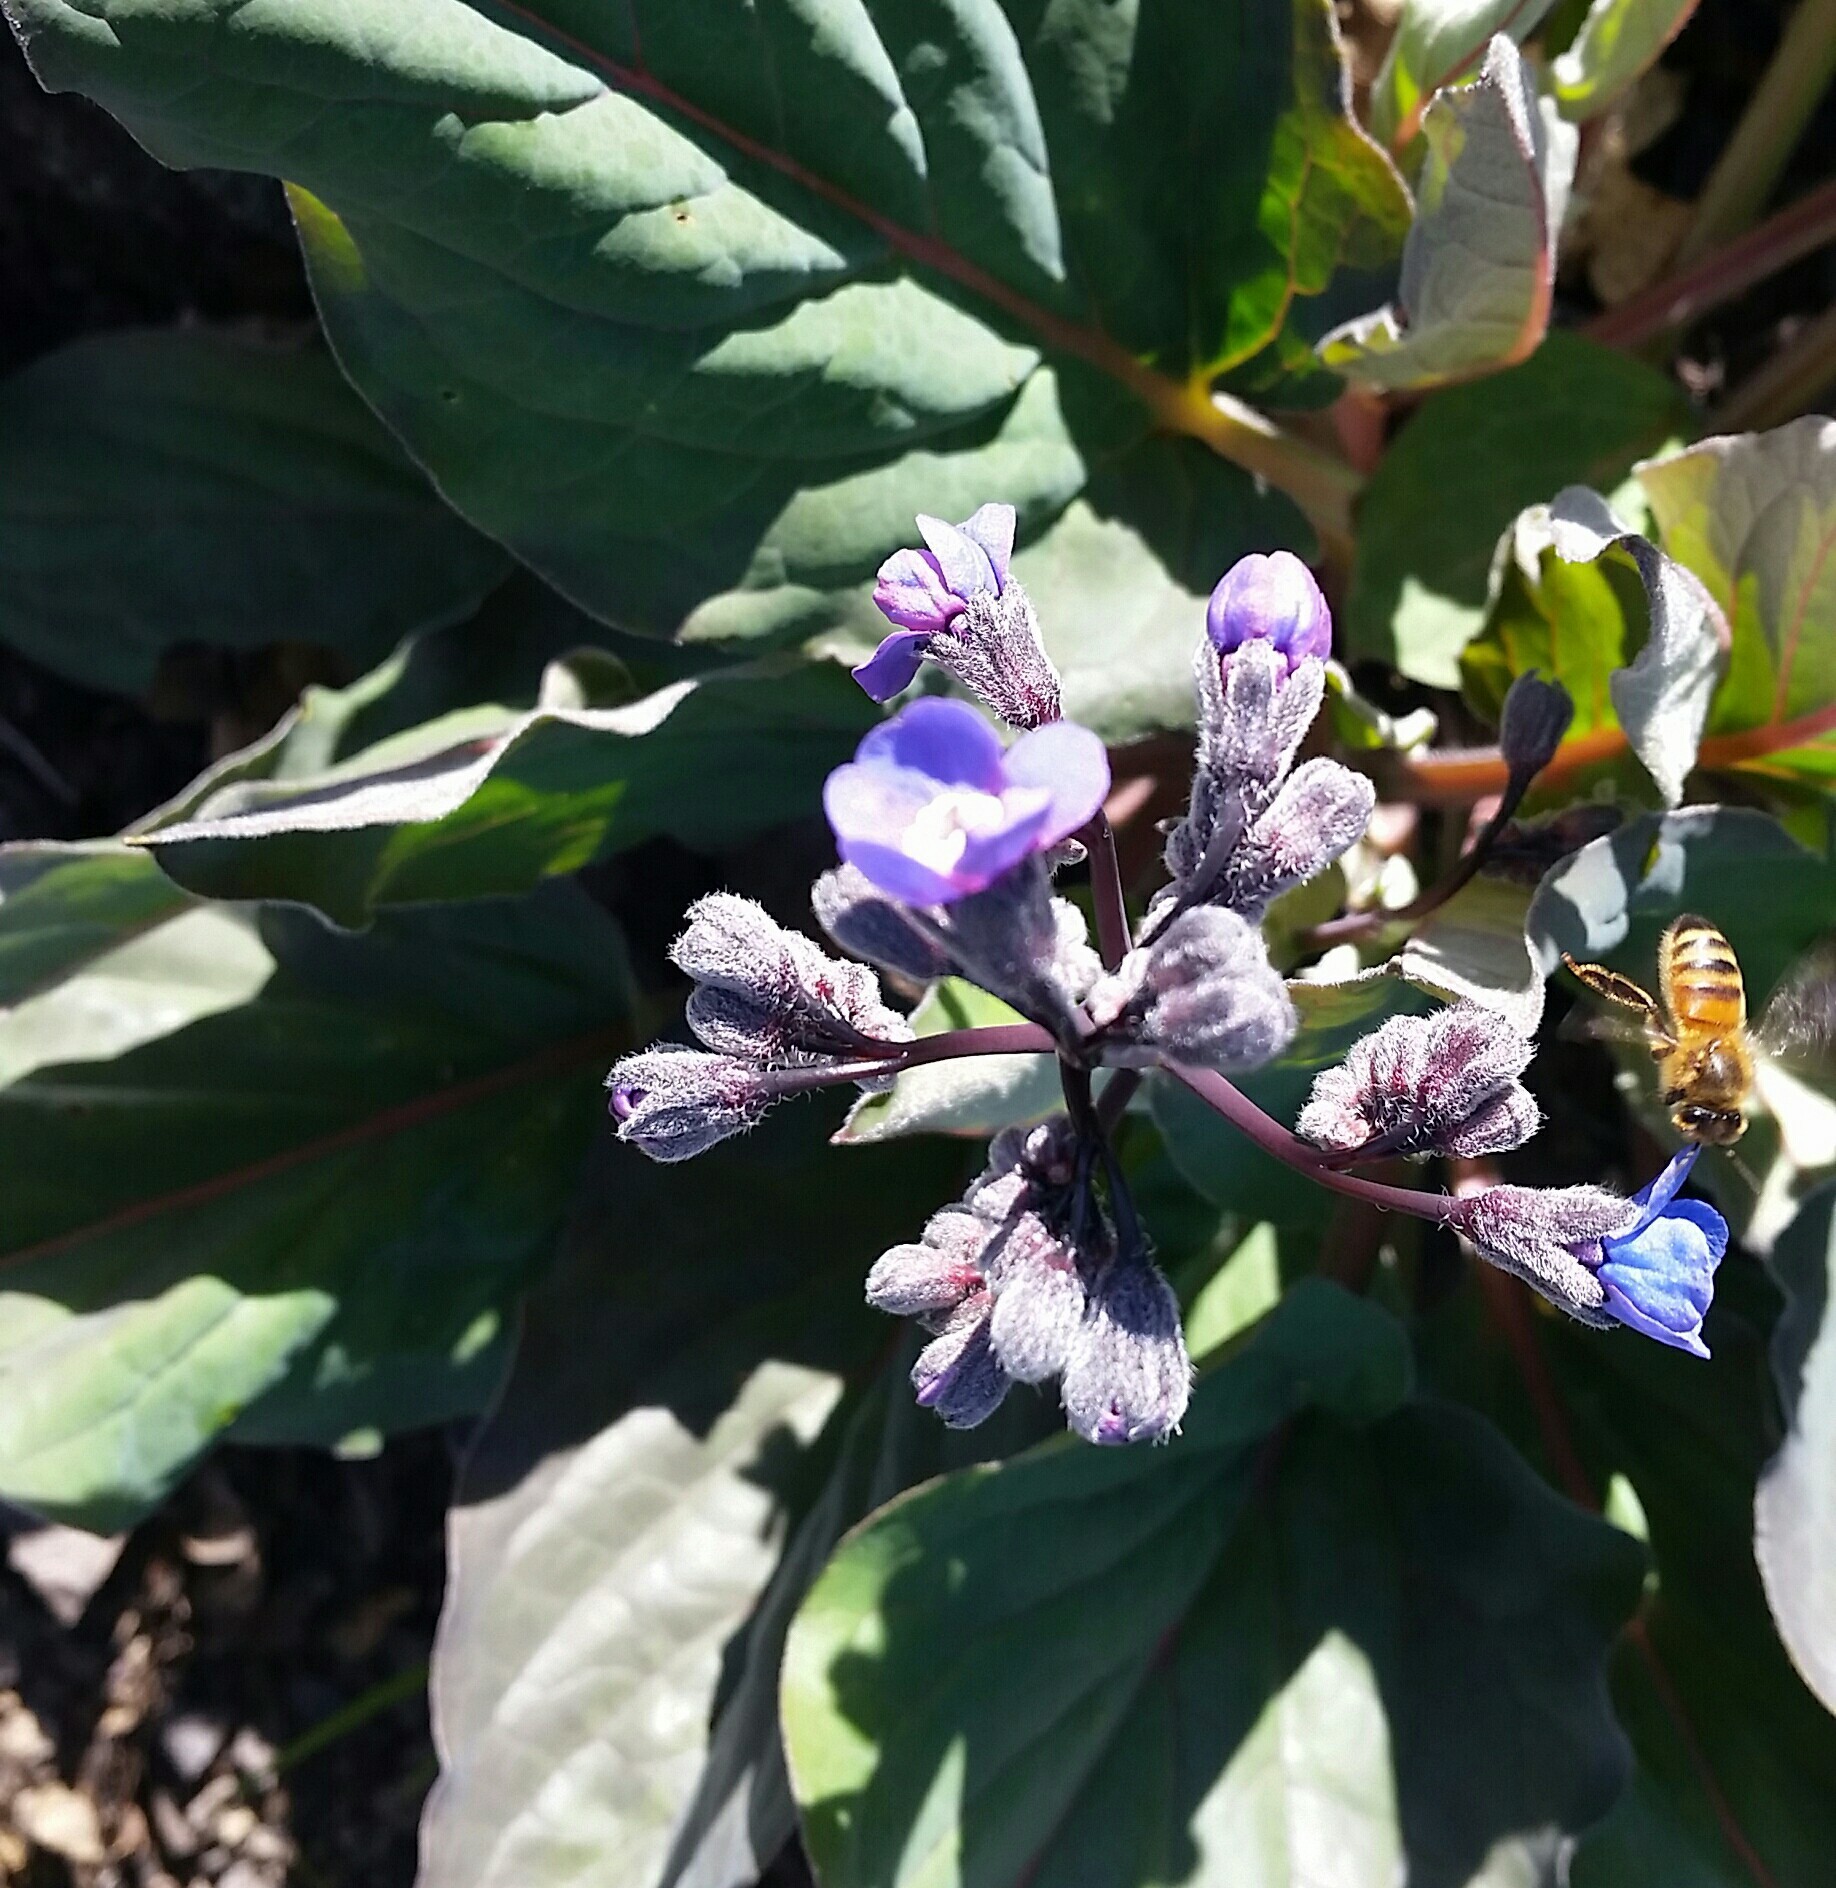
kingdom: Plantae
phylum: Tracheophyta
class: Magnoliopsida
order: Boraginales
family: Boraginaceae
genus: Adelinia
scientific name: Adelinia grande
